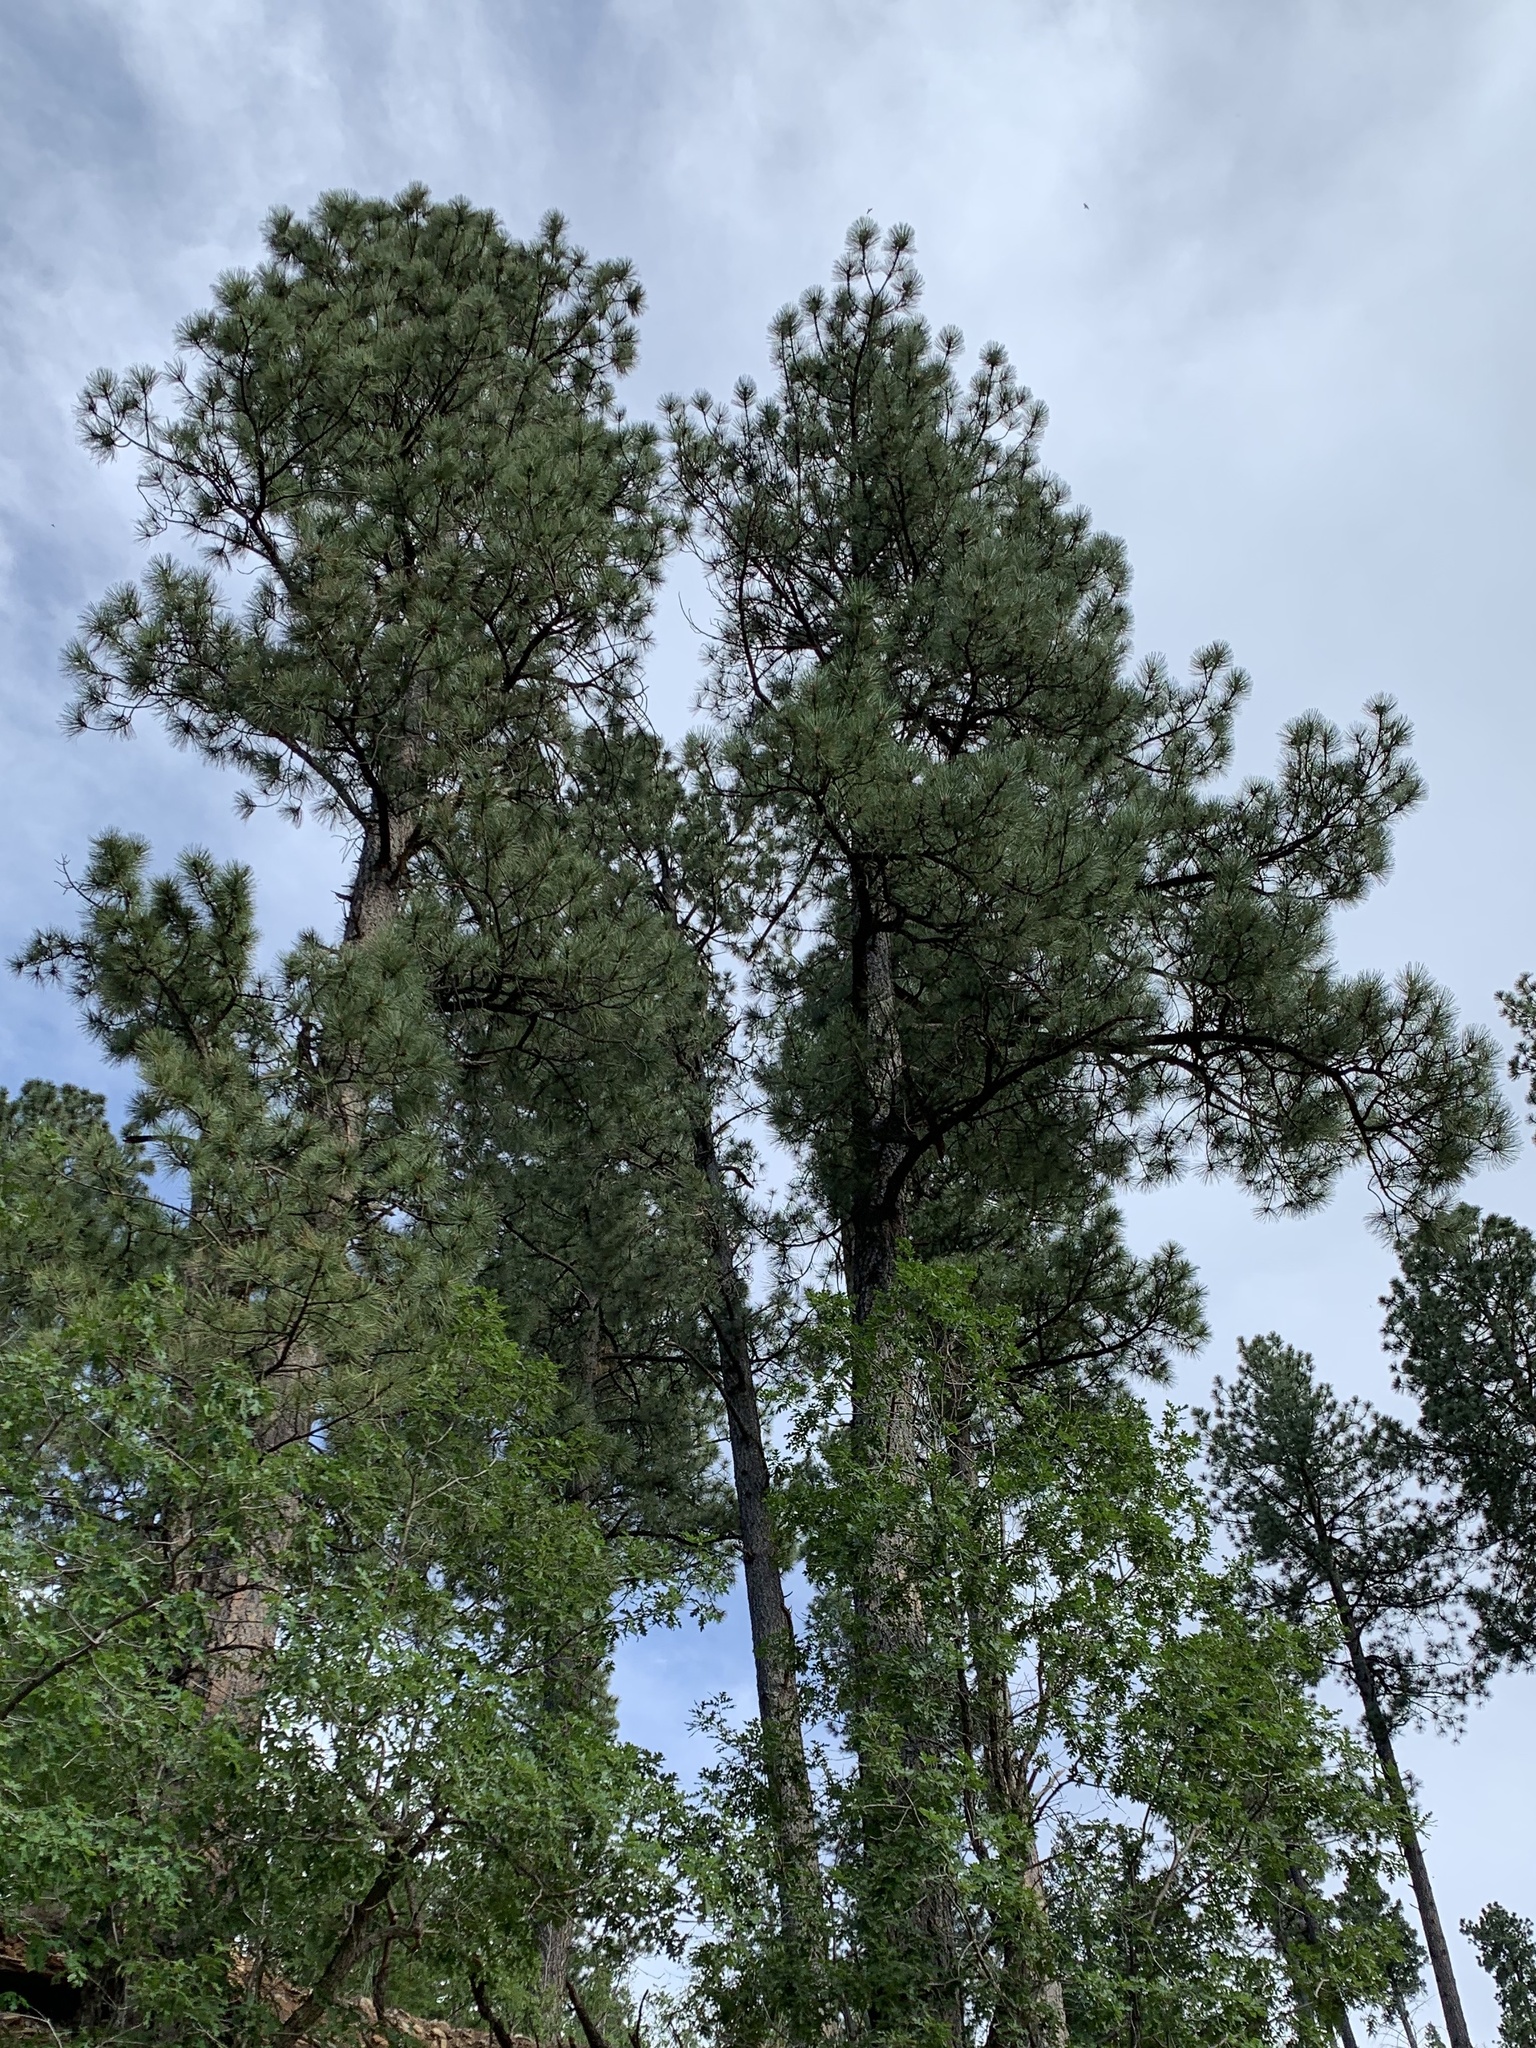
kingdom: Plantae
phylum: Tracheophyta
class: Pinopsida
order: Pinales
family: Pinaceae
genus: Pinus
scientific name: Pinus ponderosa
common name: Western yellow-pine
